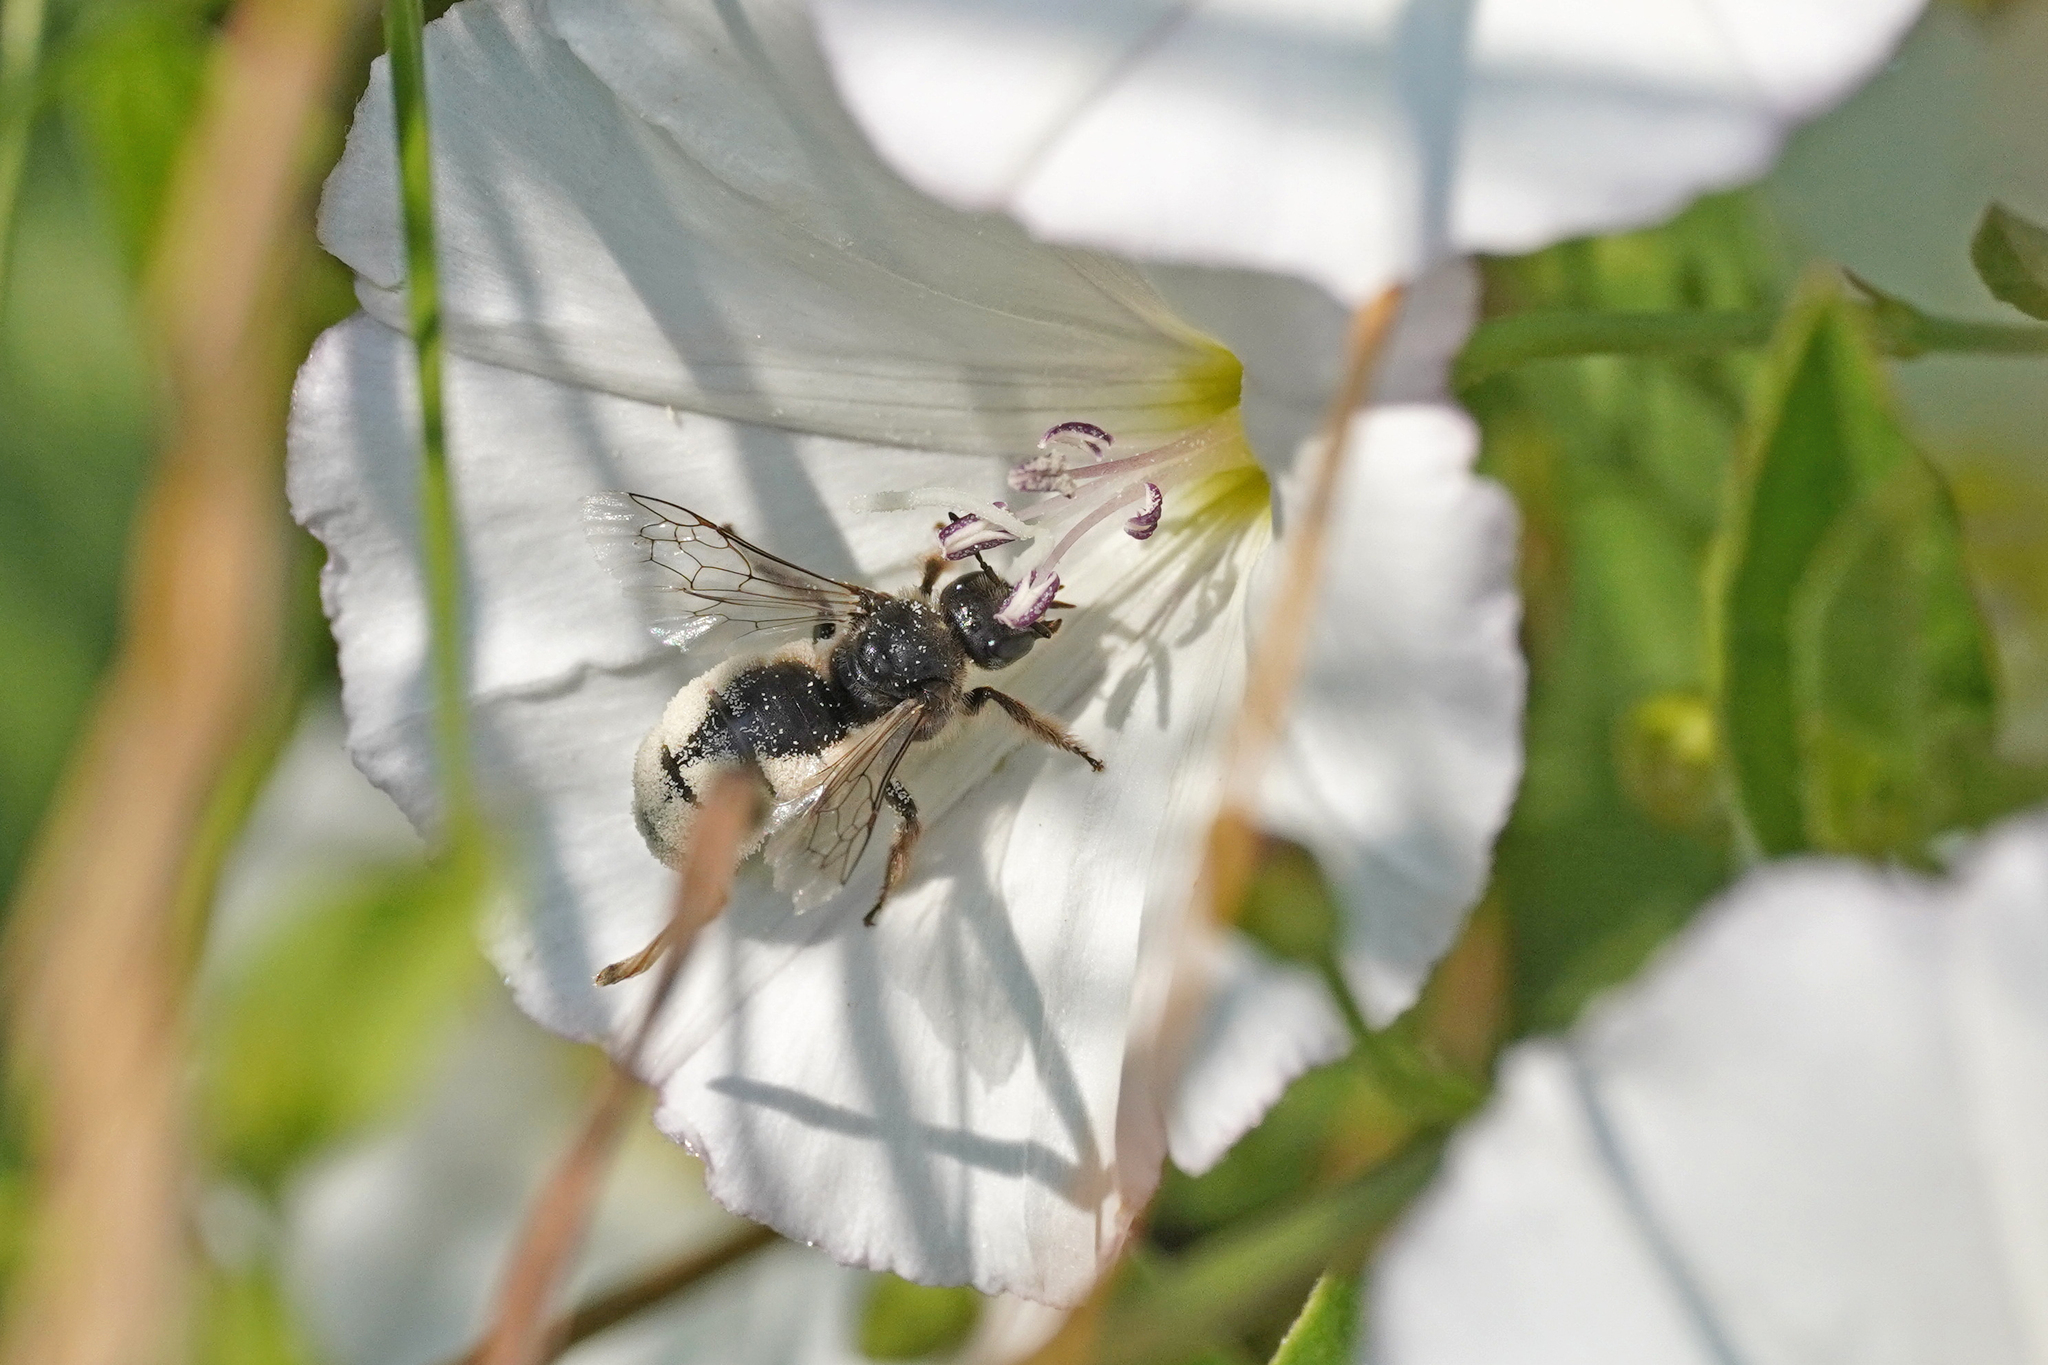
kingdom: Animalia
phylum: Arthropoda
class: Insecta
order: Hymenoptera
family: Halictidae
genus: Systropha
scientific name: Systropha planidens
